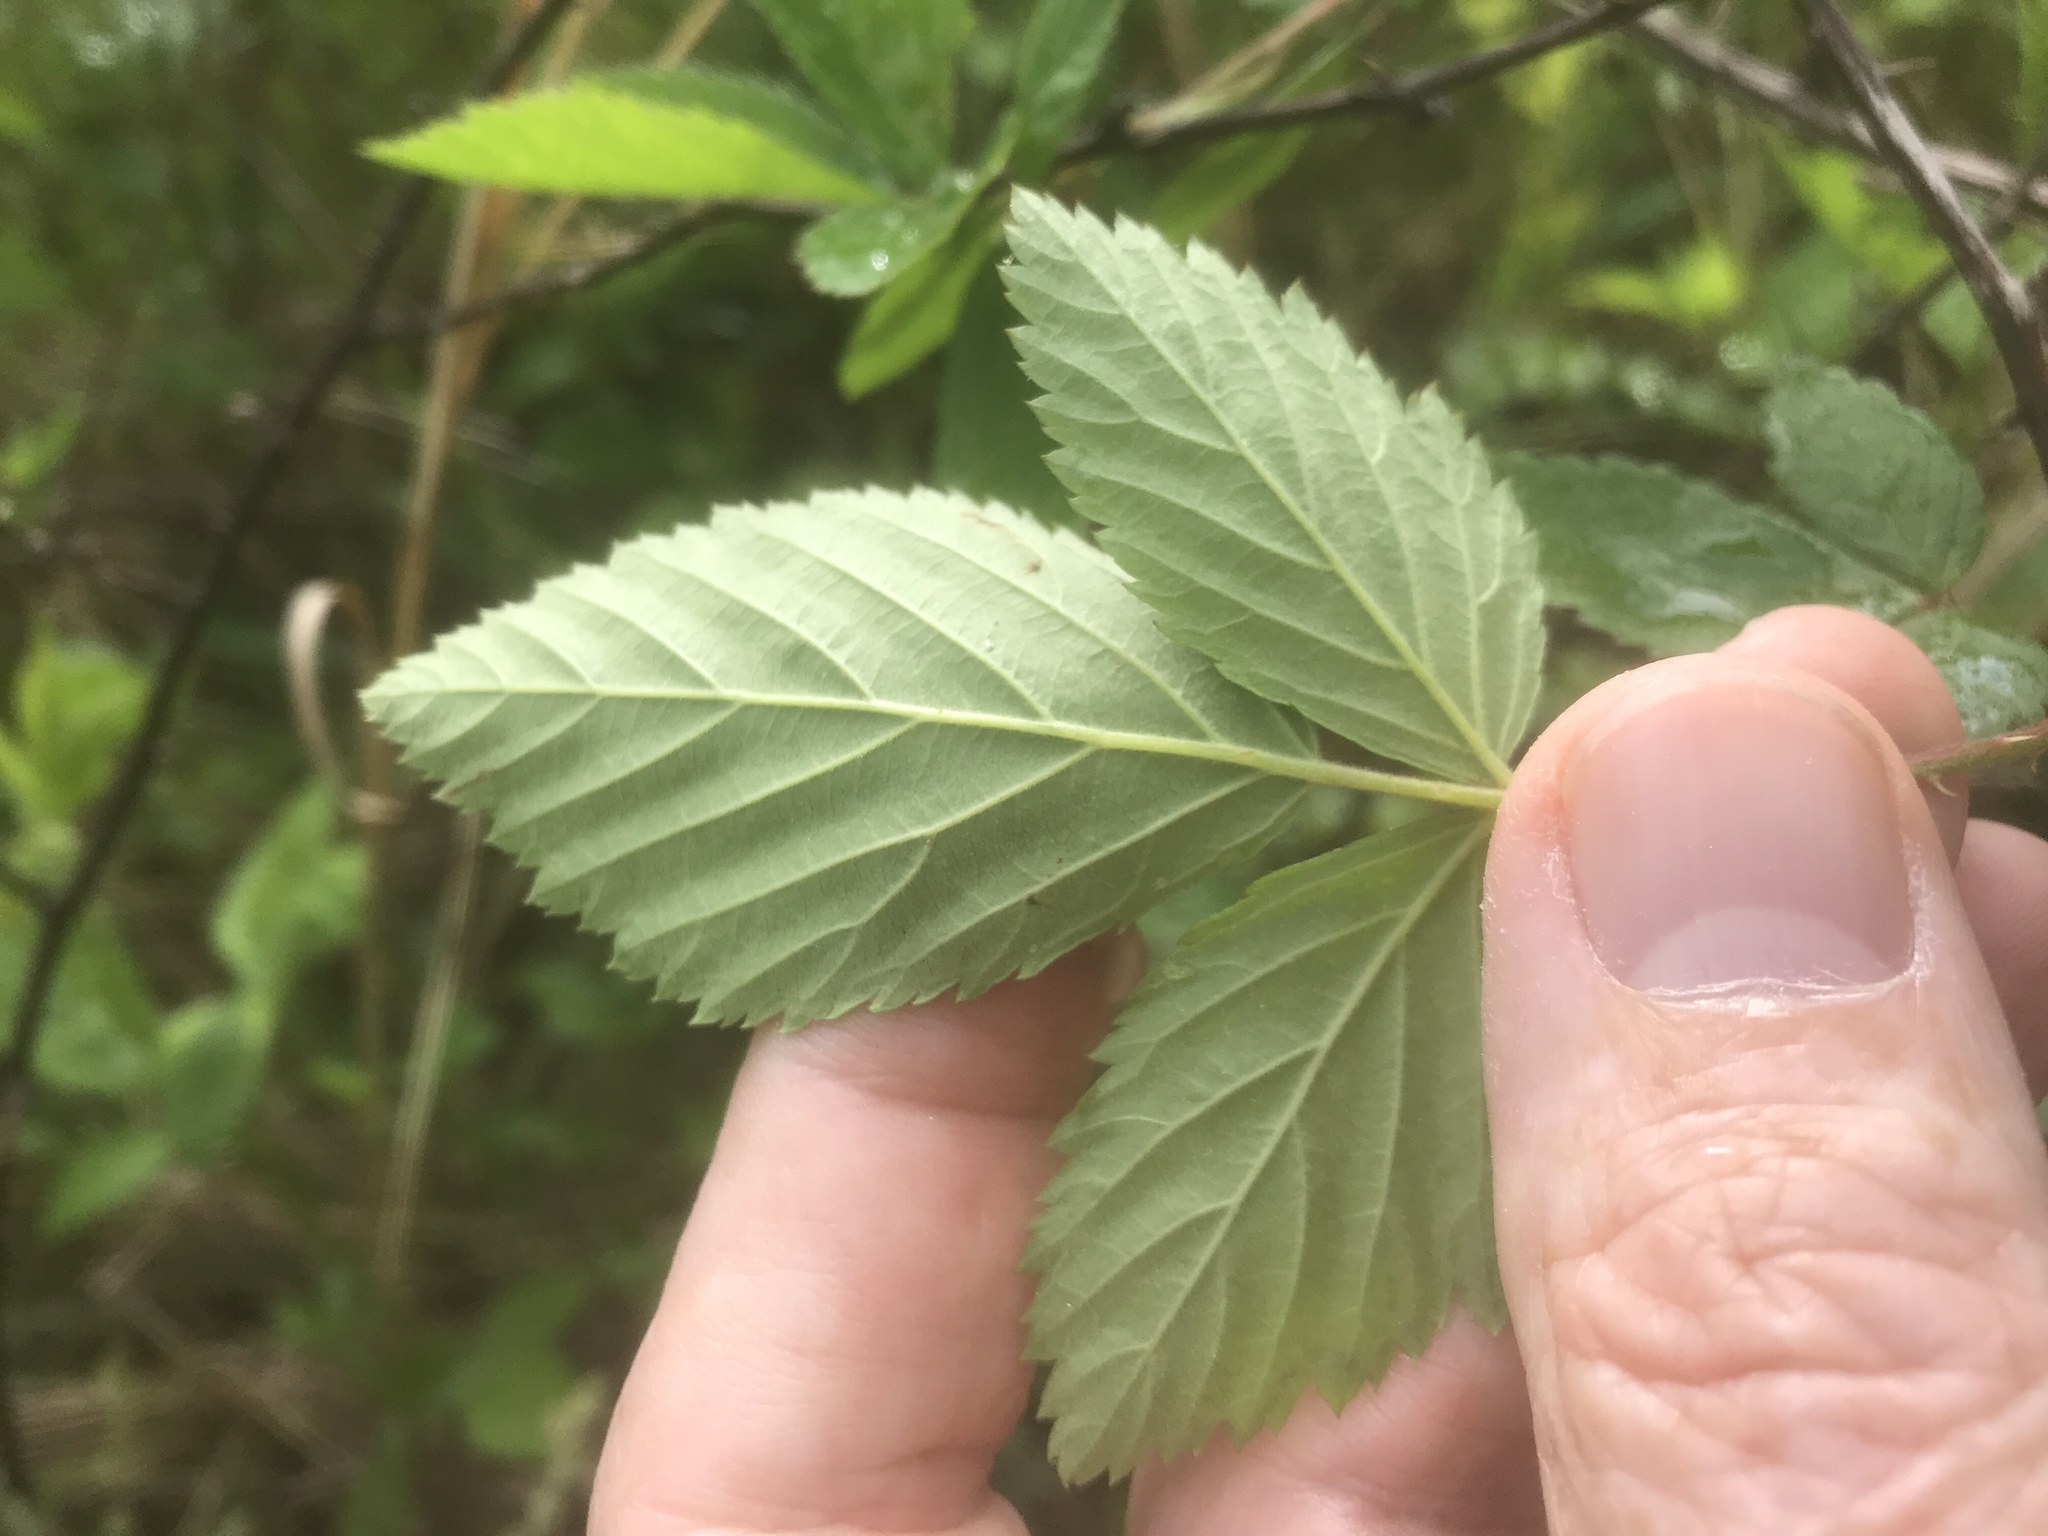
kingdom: Plantae
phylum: Tracheophyta
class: Magnoliopsida
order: Rosales
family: Rosaceae
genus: Rubus
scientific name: Rubus pensilvanicus
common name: Pennsylvania blackberry
